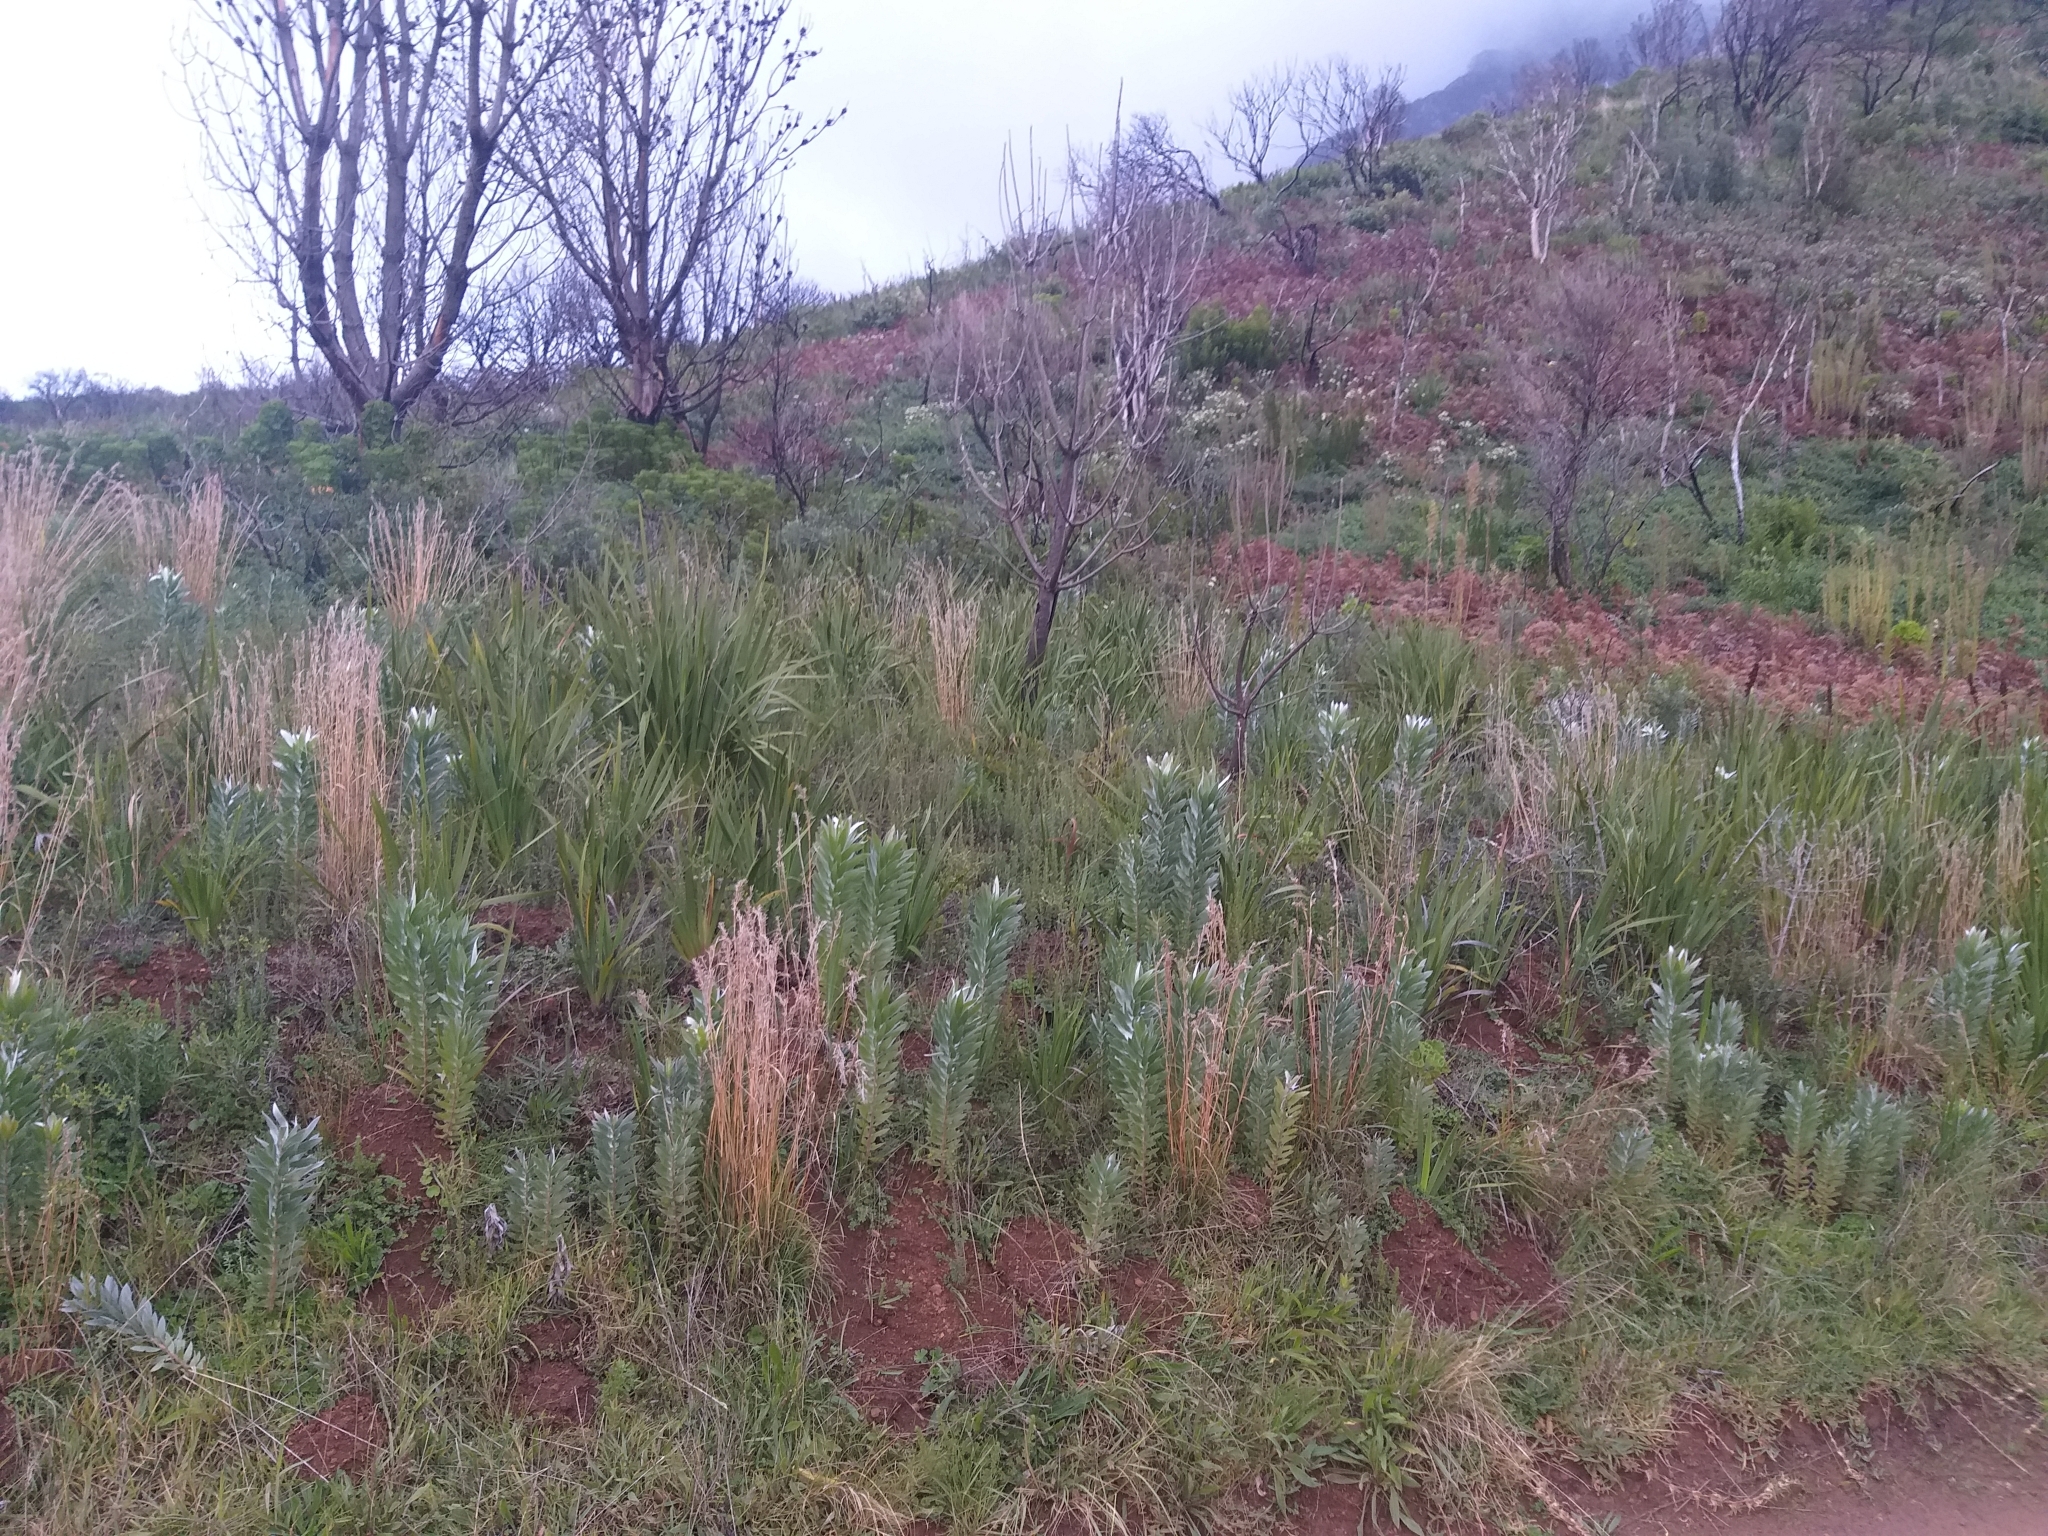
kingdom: Plantae
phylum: Tracheophyta
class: Magnoliopsida
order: Proteales
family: Proteaceae
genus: Leucadendron
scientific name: Leucadendron argenteum
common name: Cape silver tree
